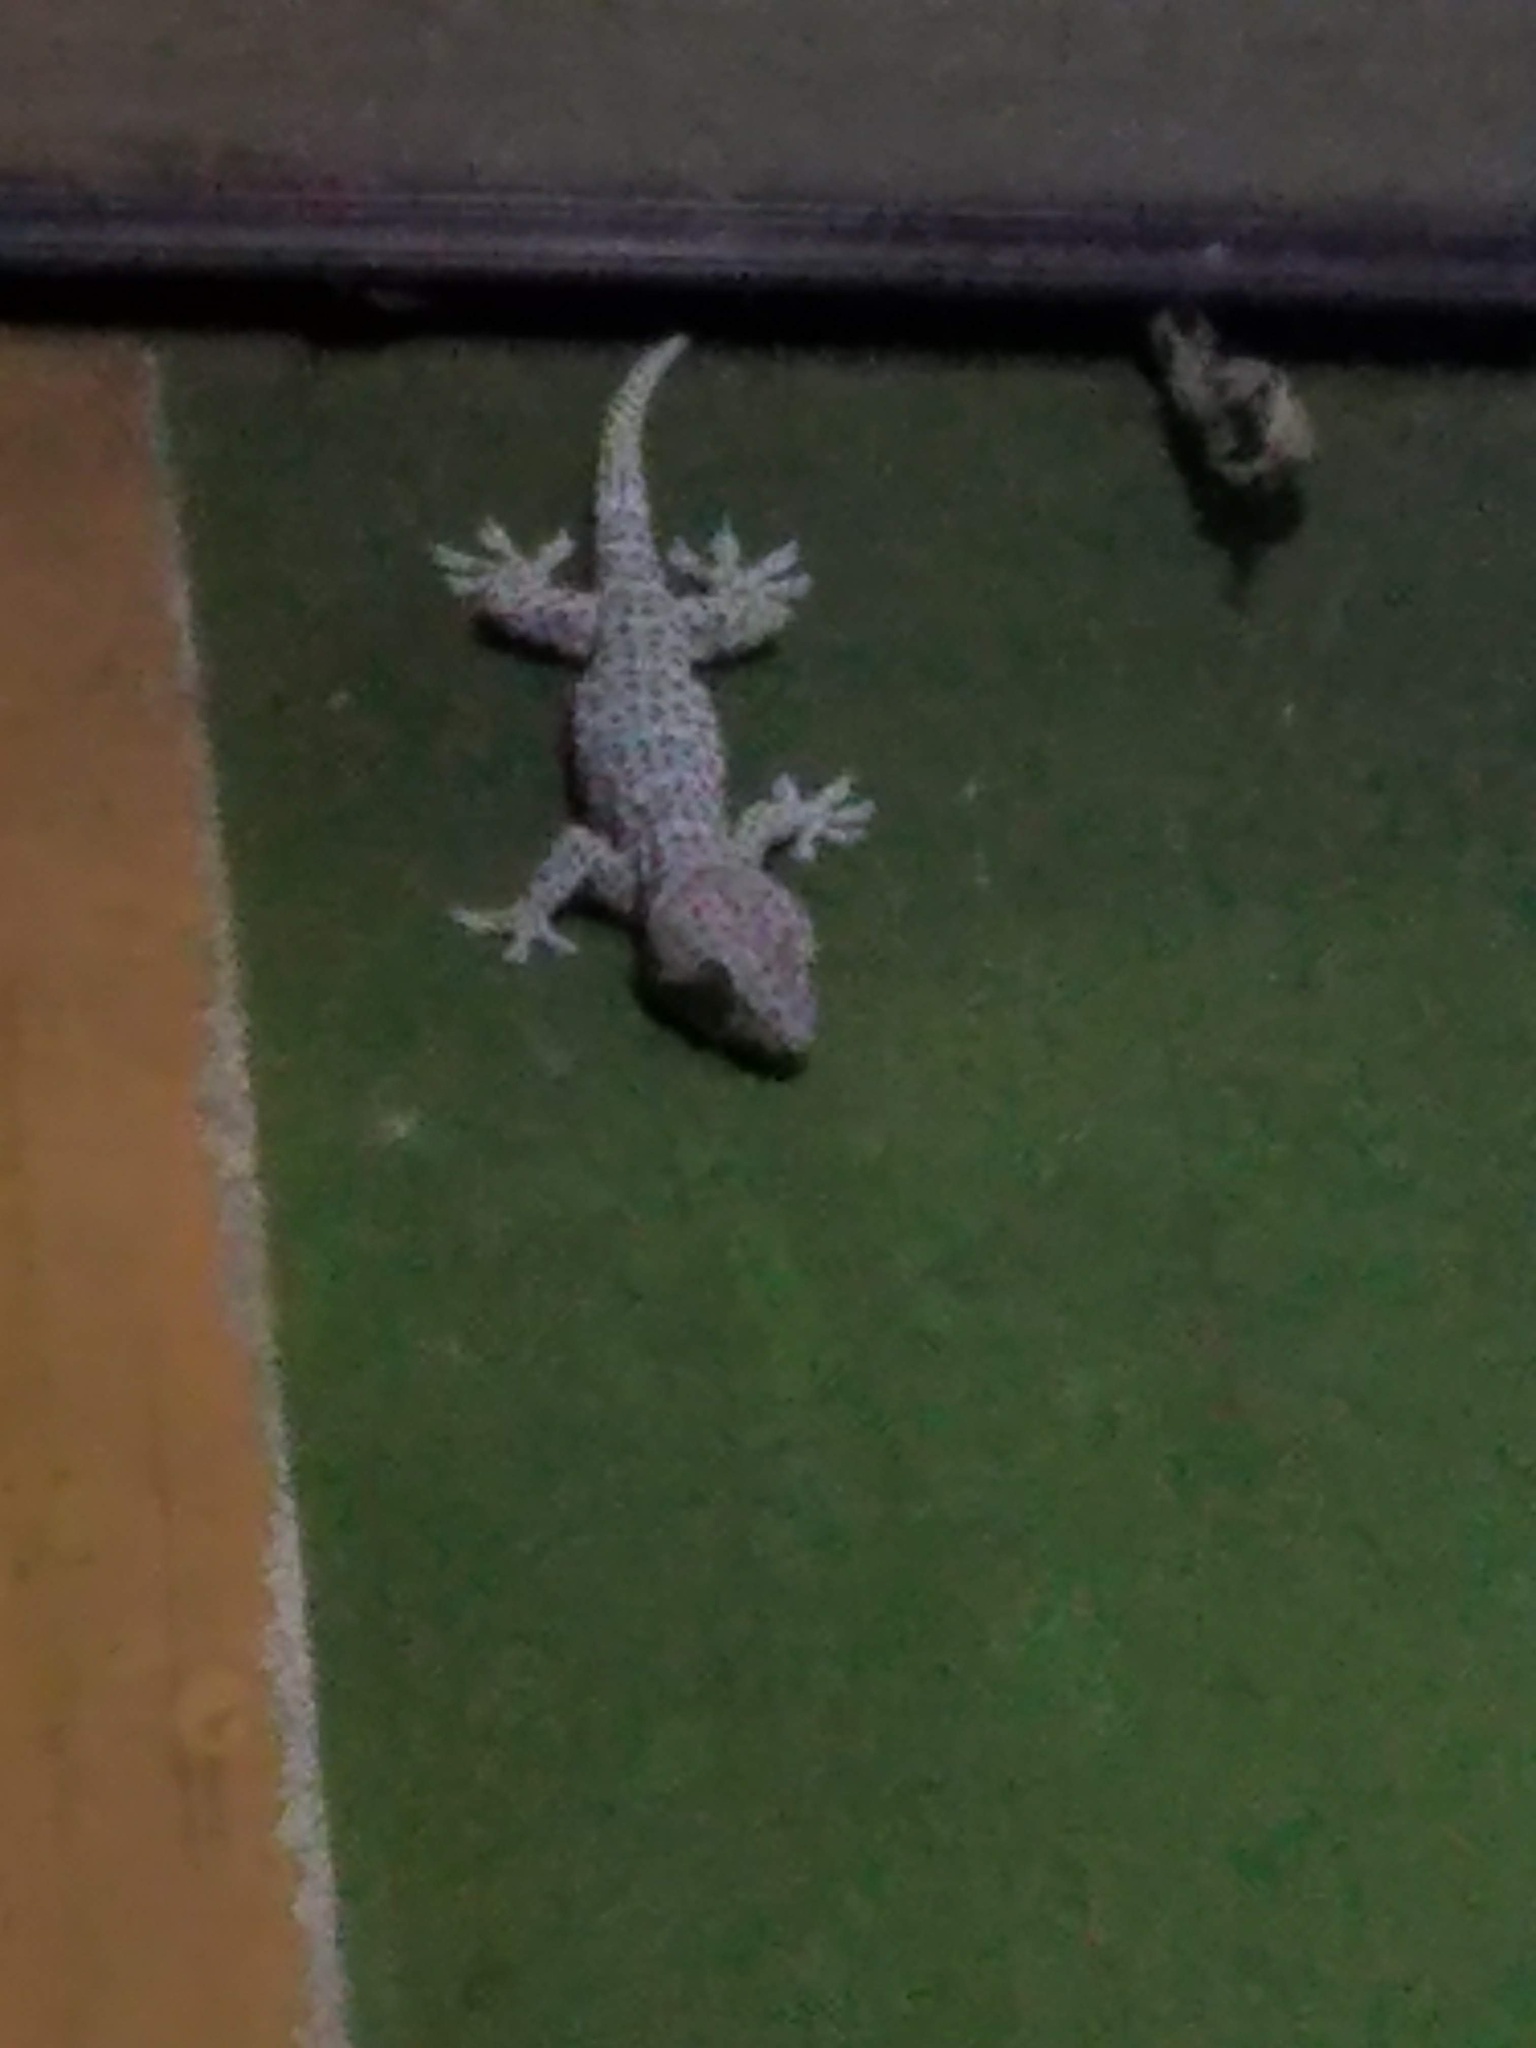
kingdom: Animalia
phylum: Chordata
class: Squamata
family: Gekkonidae
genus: Gekko
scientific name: Gekko gecko
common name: Tokay gecko
